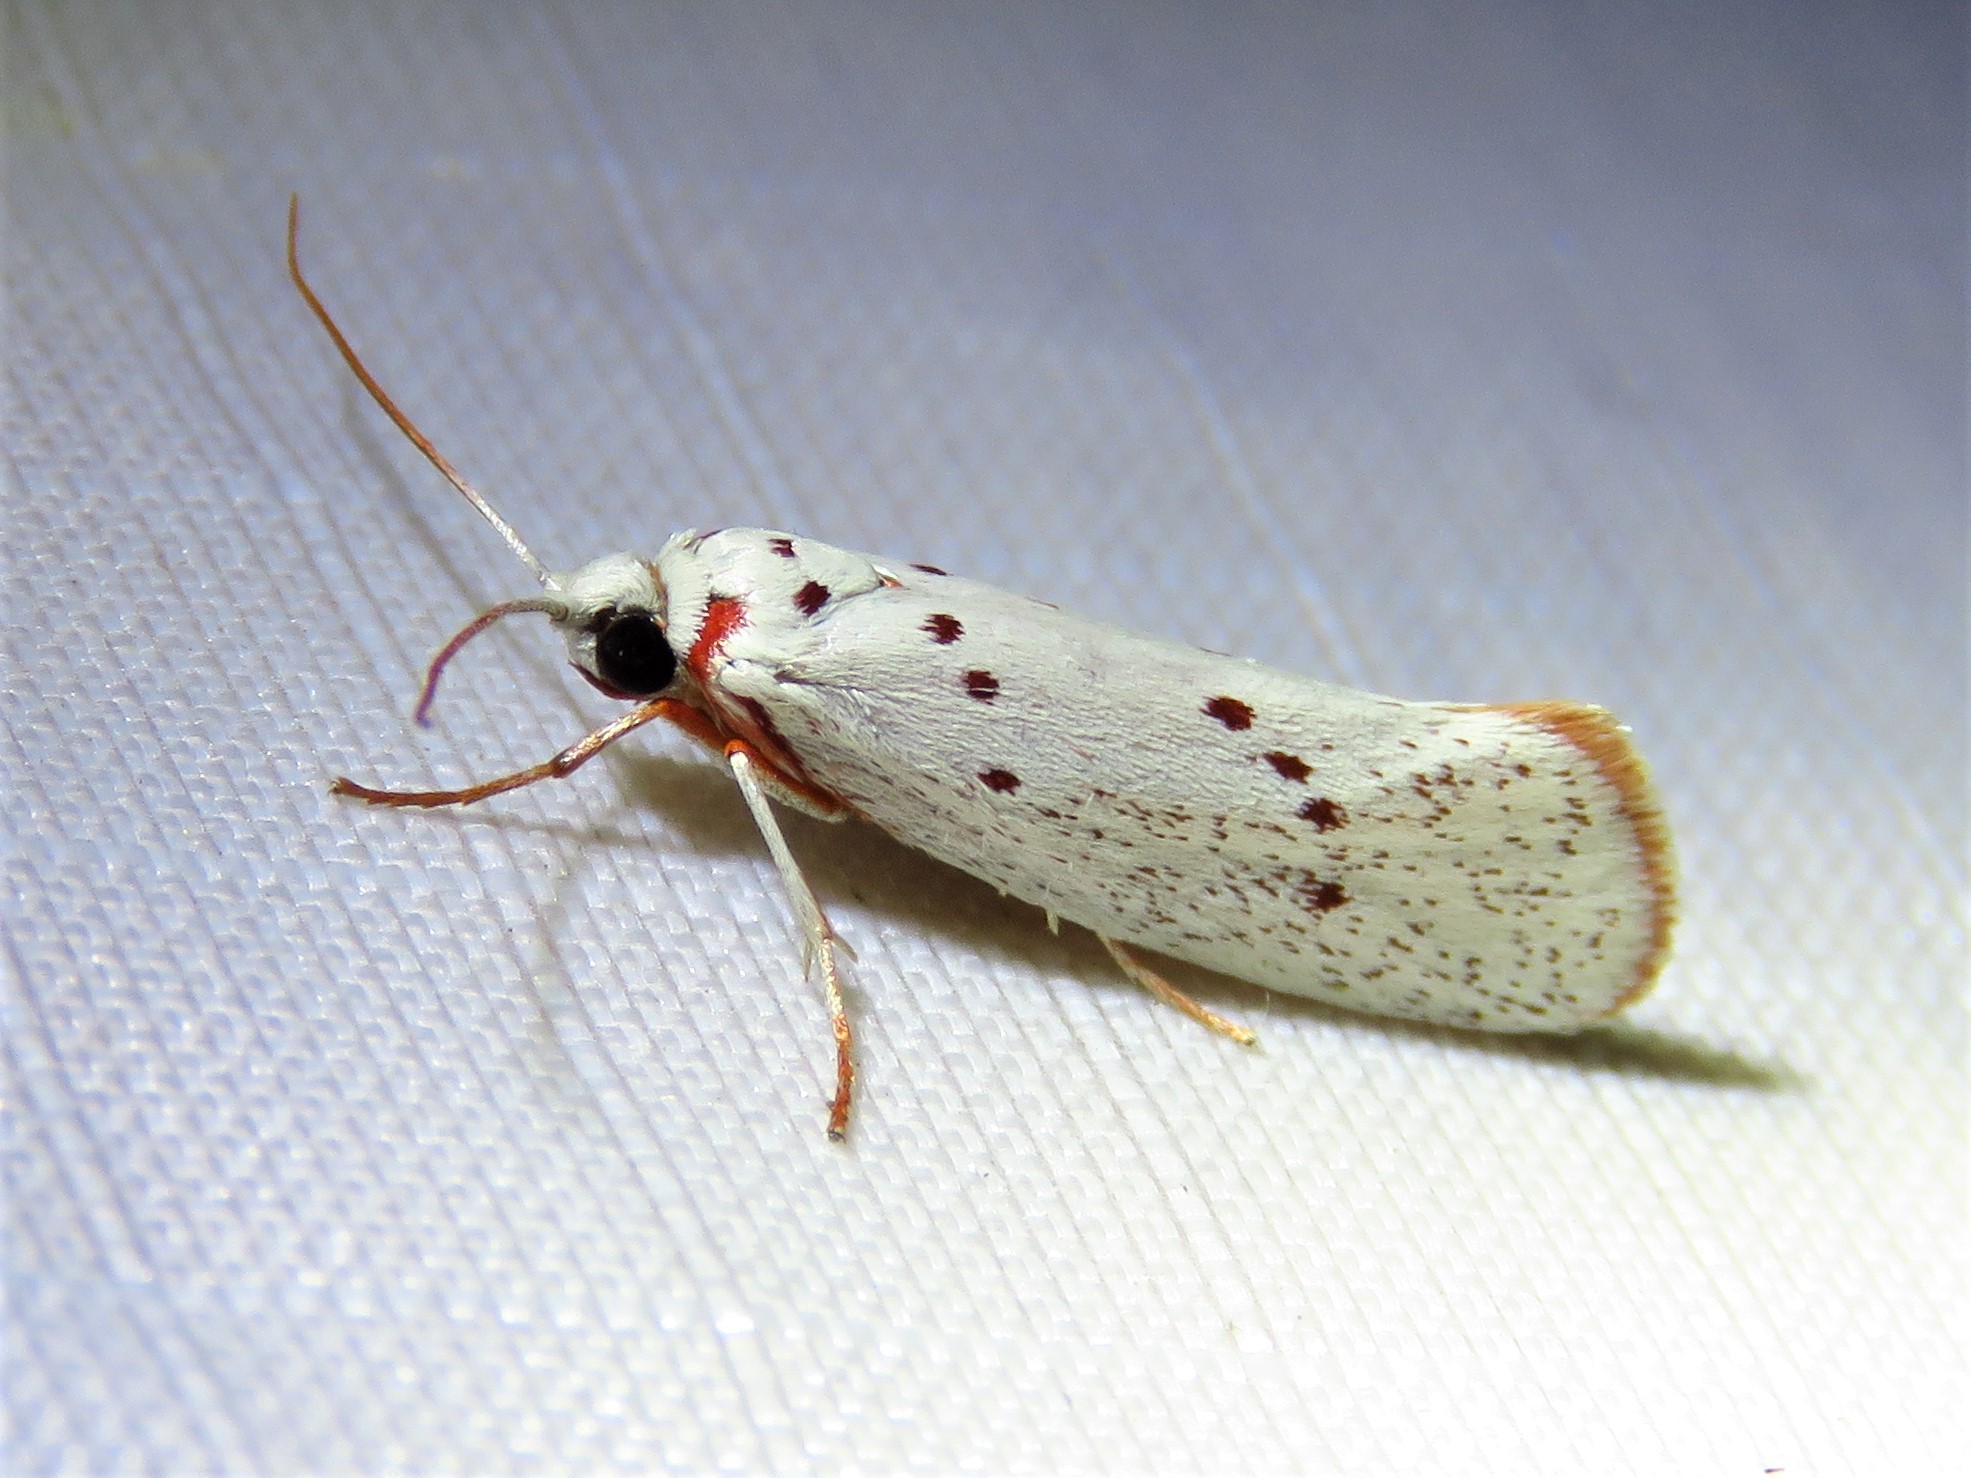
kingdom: Animalia
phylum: Arthropoda
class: Insecta
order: Lepidoptera
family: Lacturidae
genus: Lactura
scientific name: Lactura
